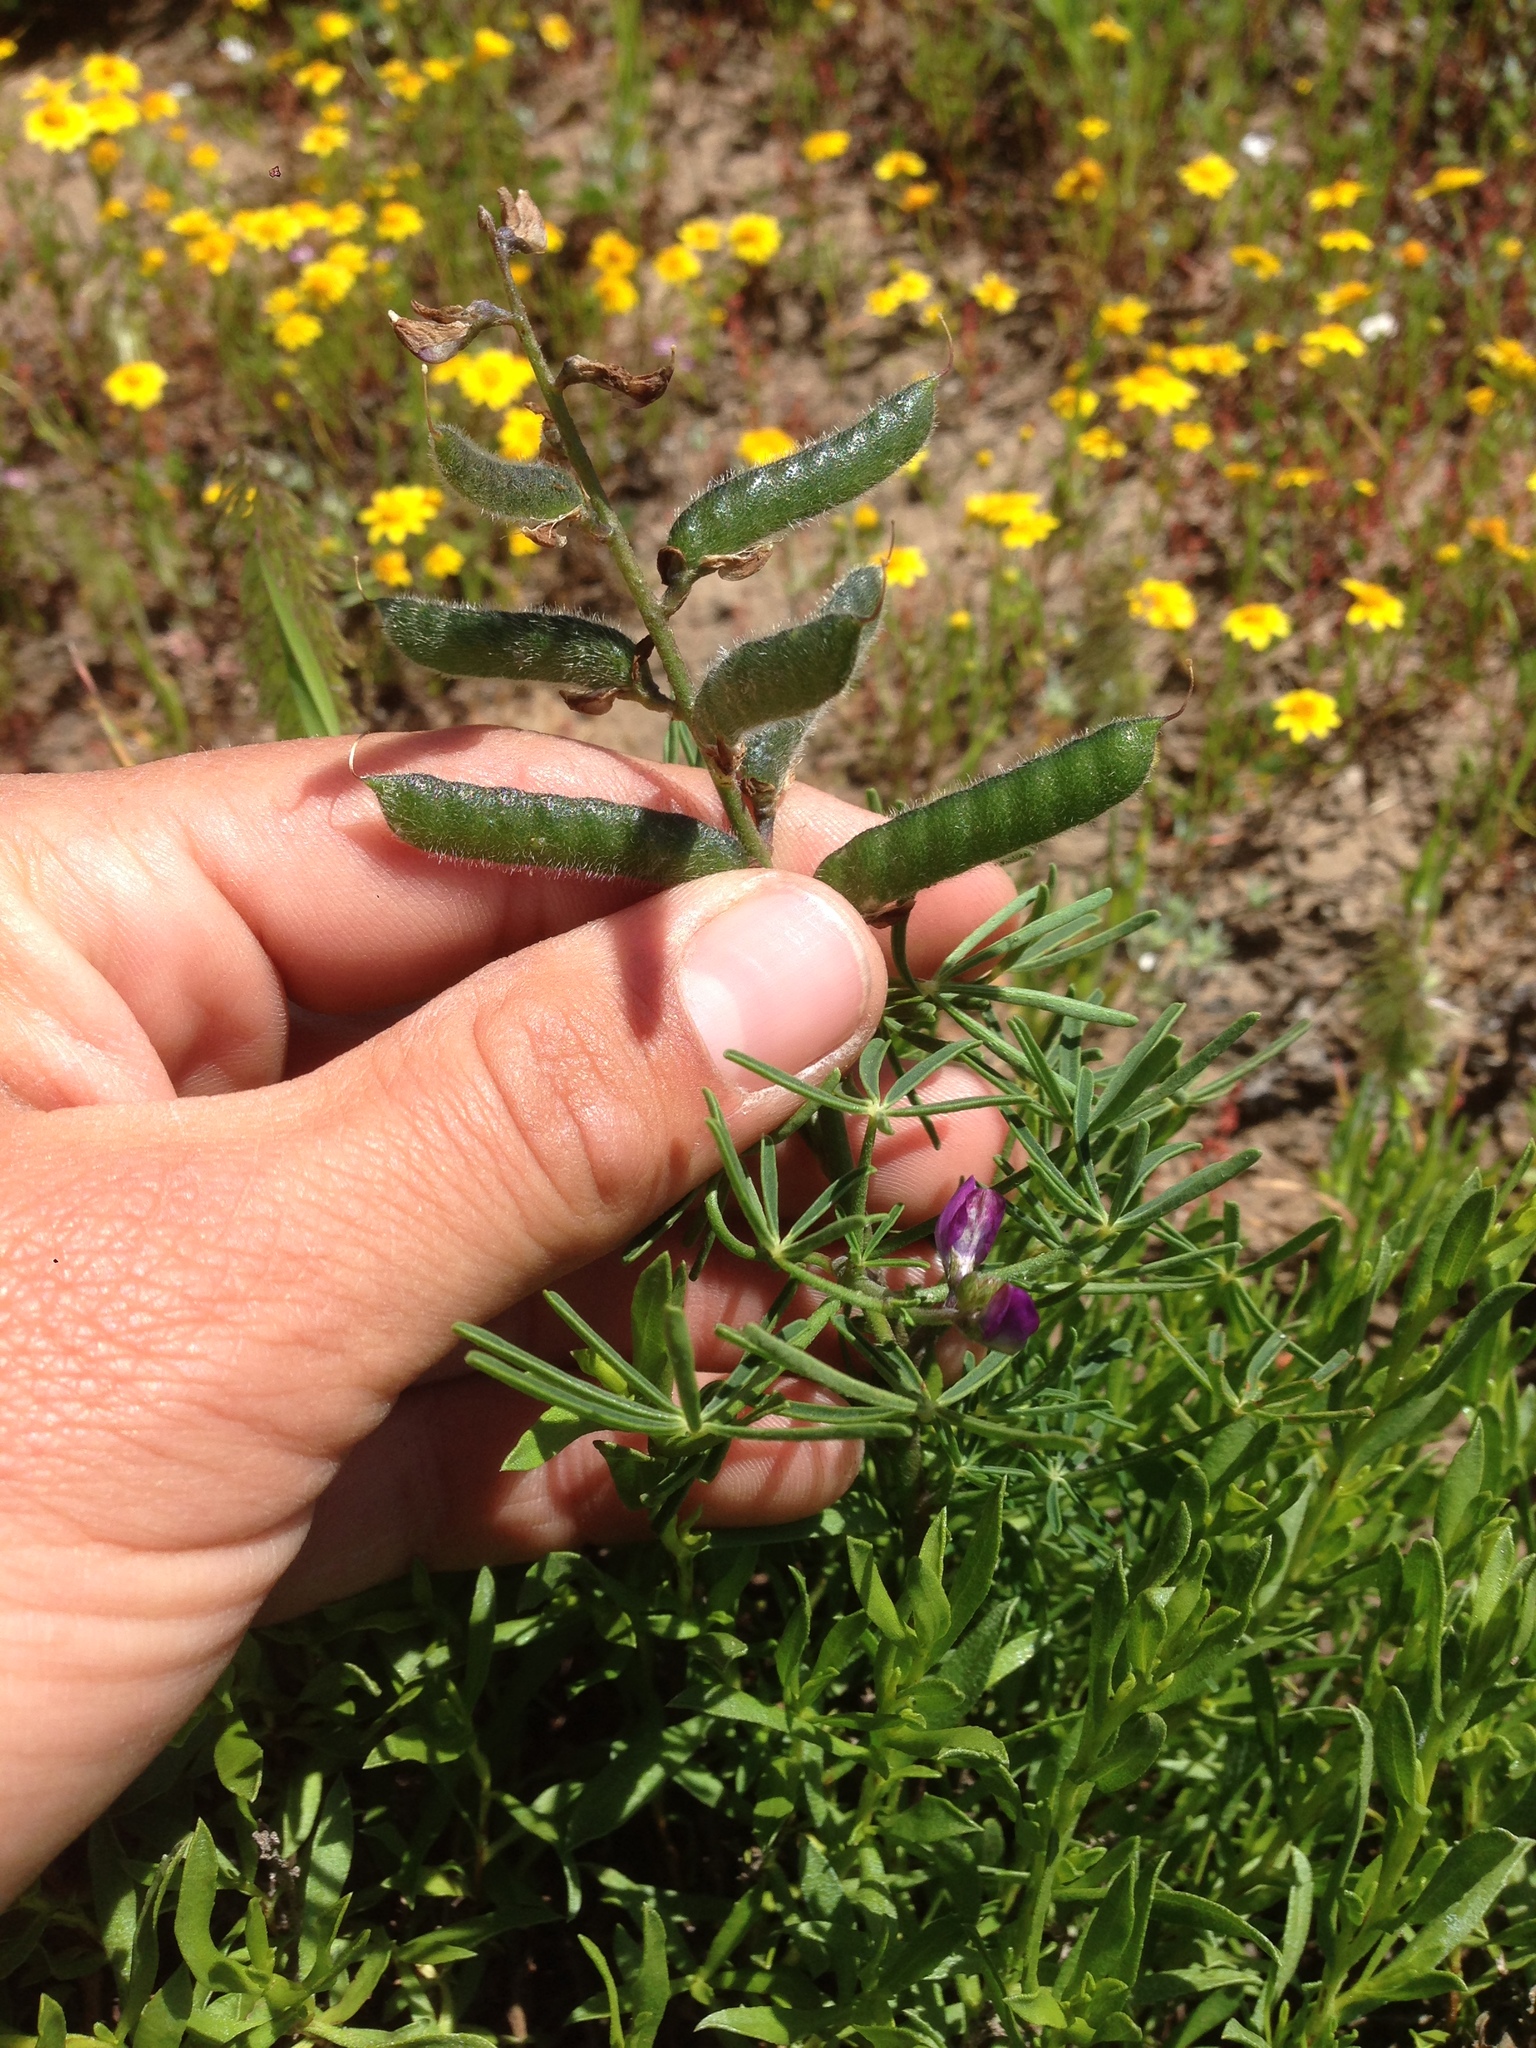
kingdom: Plantae
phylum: Tracheophyta
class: Magnoliopsida
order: Fabales
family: Fabaceae
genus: Lupinus
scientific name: Lupinus truncatus
